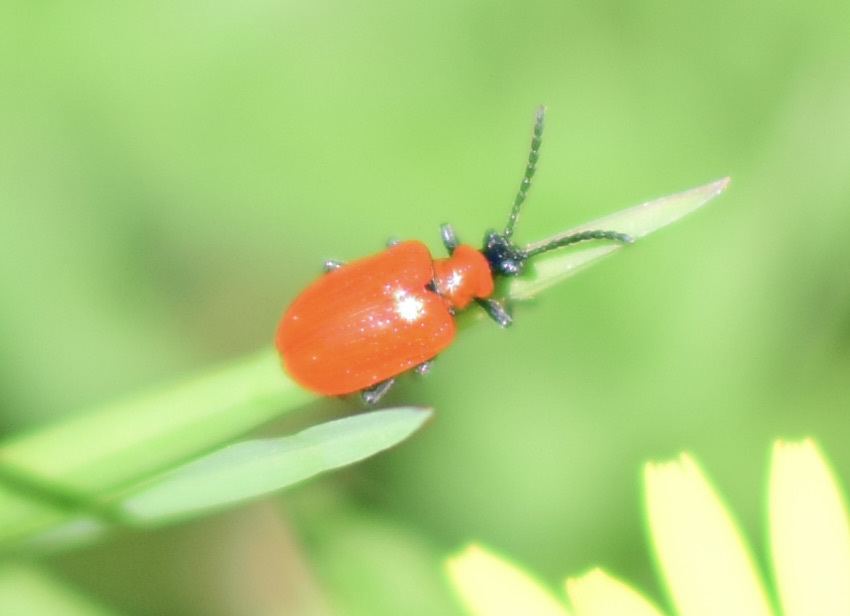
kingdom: Animalia
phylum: Arthropoda
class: Insecta
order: Coleoptera
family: Chrysomelidae
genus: Lilioceris
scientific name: Lilioceris lilii
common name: Lily beetle
